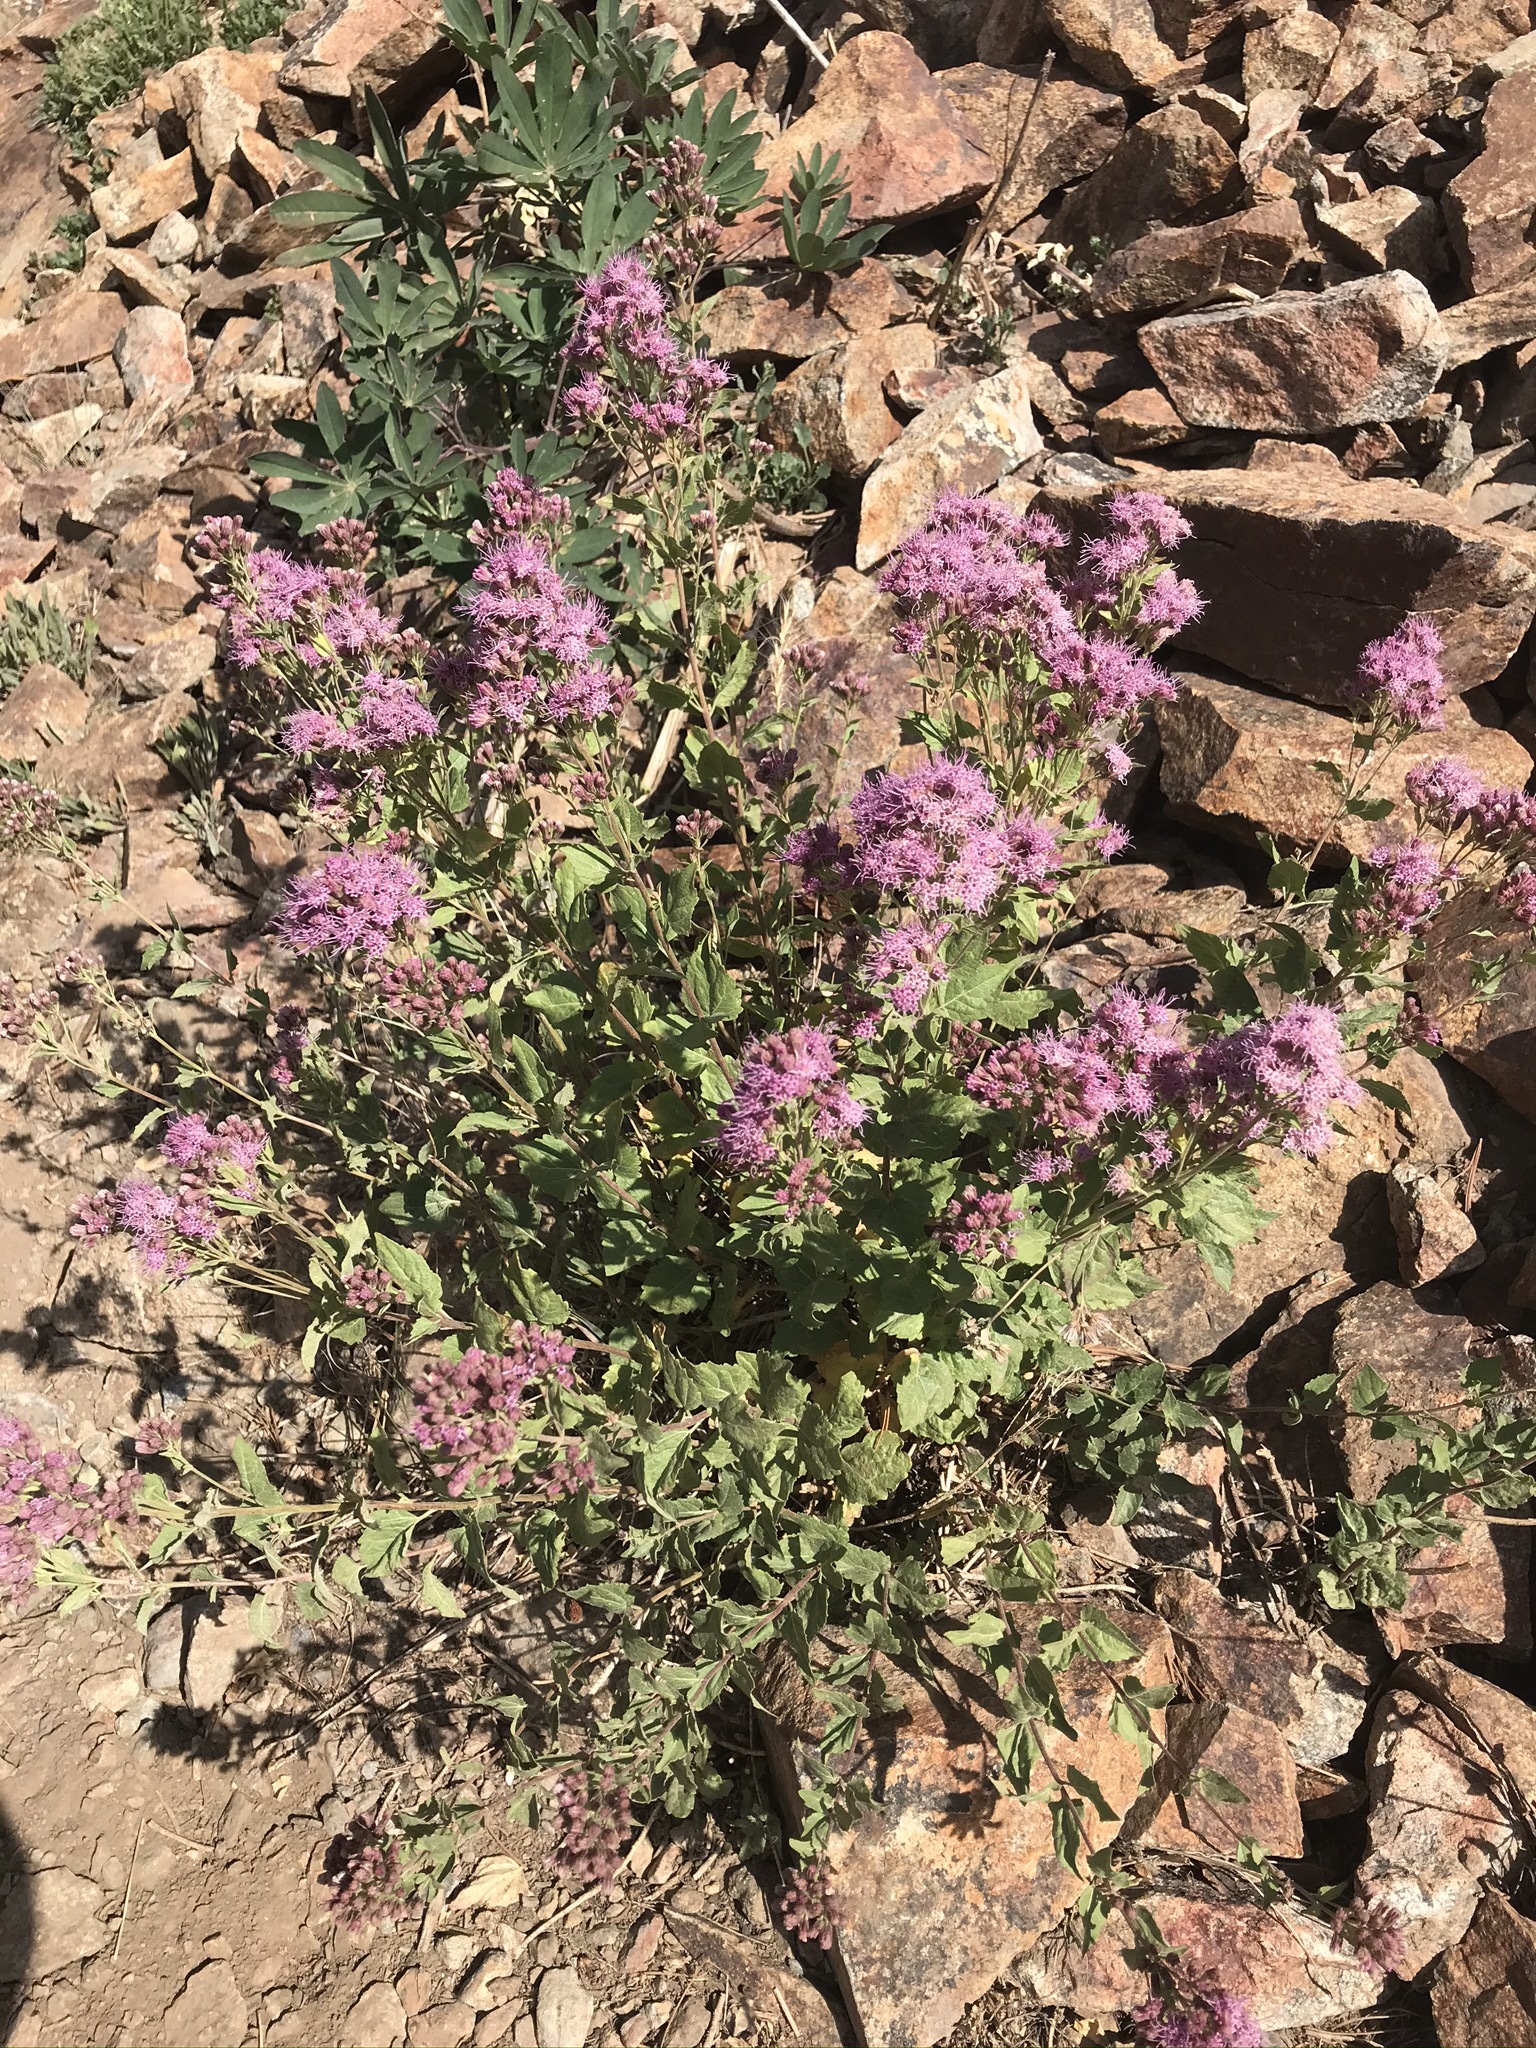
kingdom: Plantae
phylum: Tracheophyta
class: Magnoliopsida
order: Asterales
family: Asteraceae
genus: Ageratina
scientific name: Ageratina occidentalis
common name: Western snakeroot
